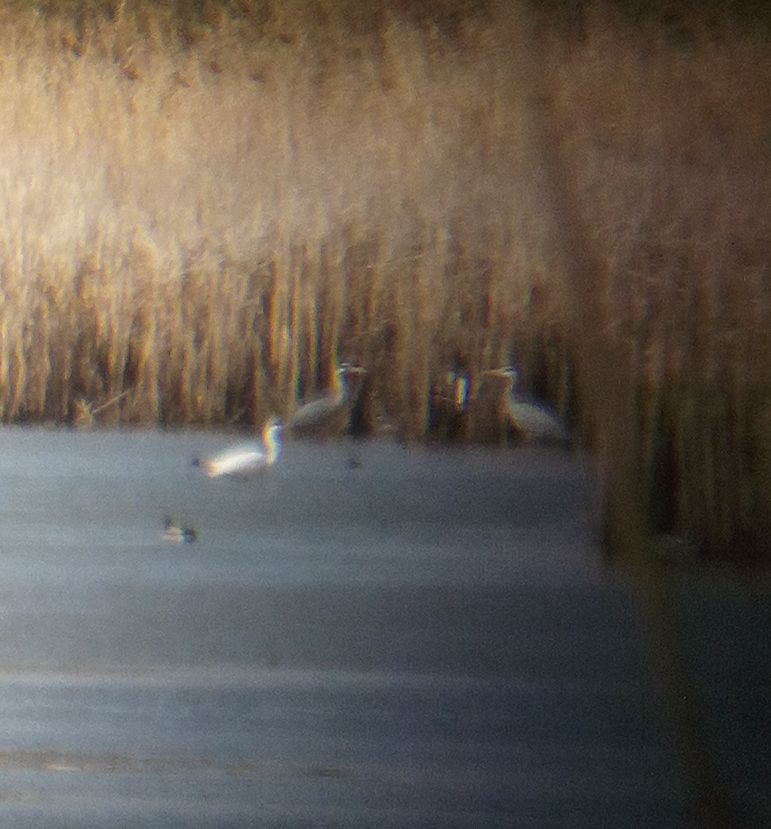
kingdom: Animalia
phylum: Chordata
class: Aves
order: Pelecaniformes
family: Ardeidae
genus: Ardea
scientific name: Ardea cinerea
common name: Grey heron
